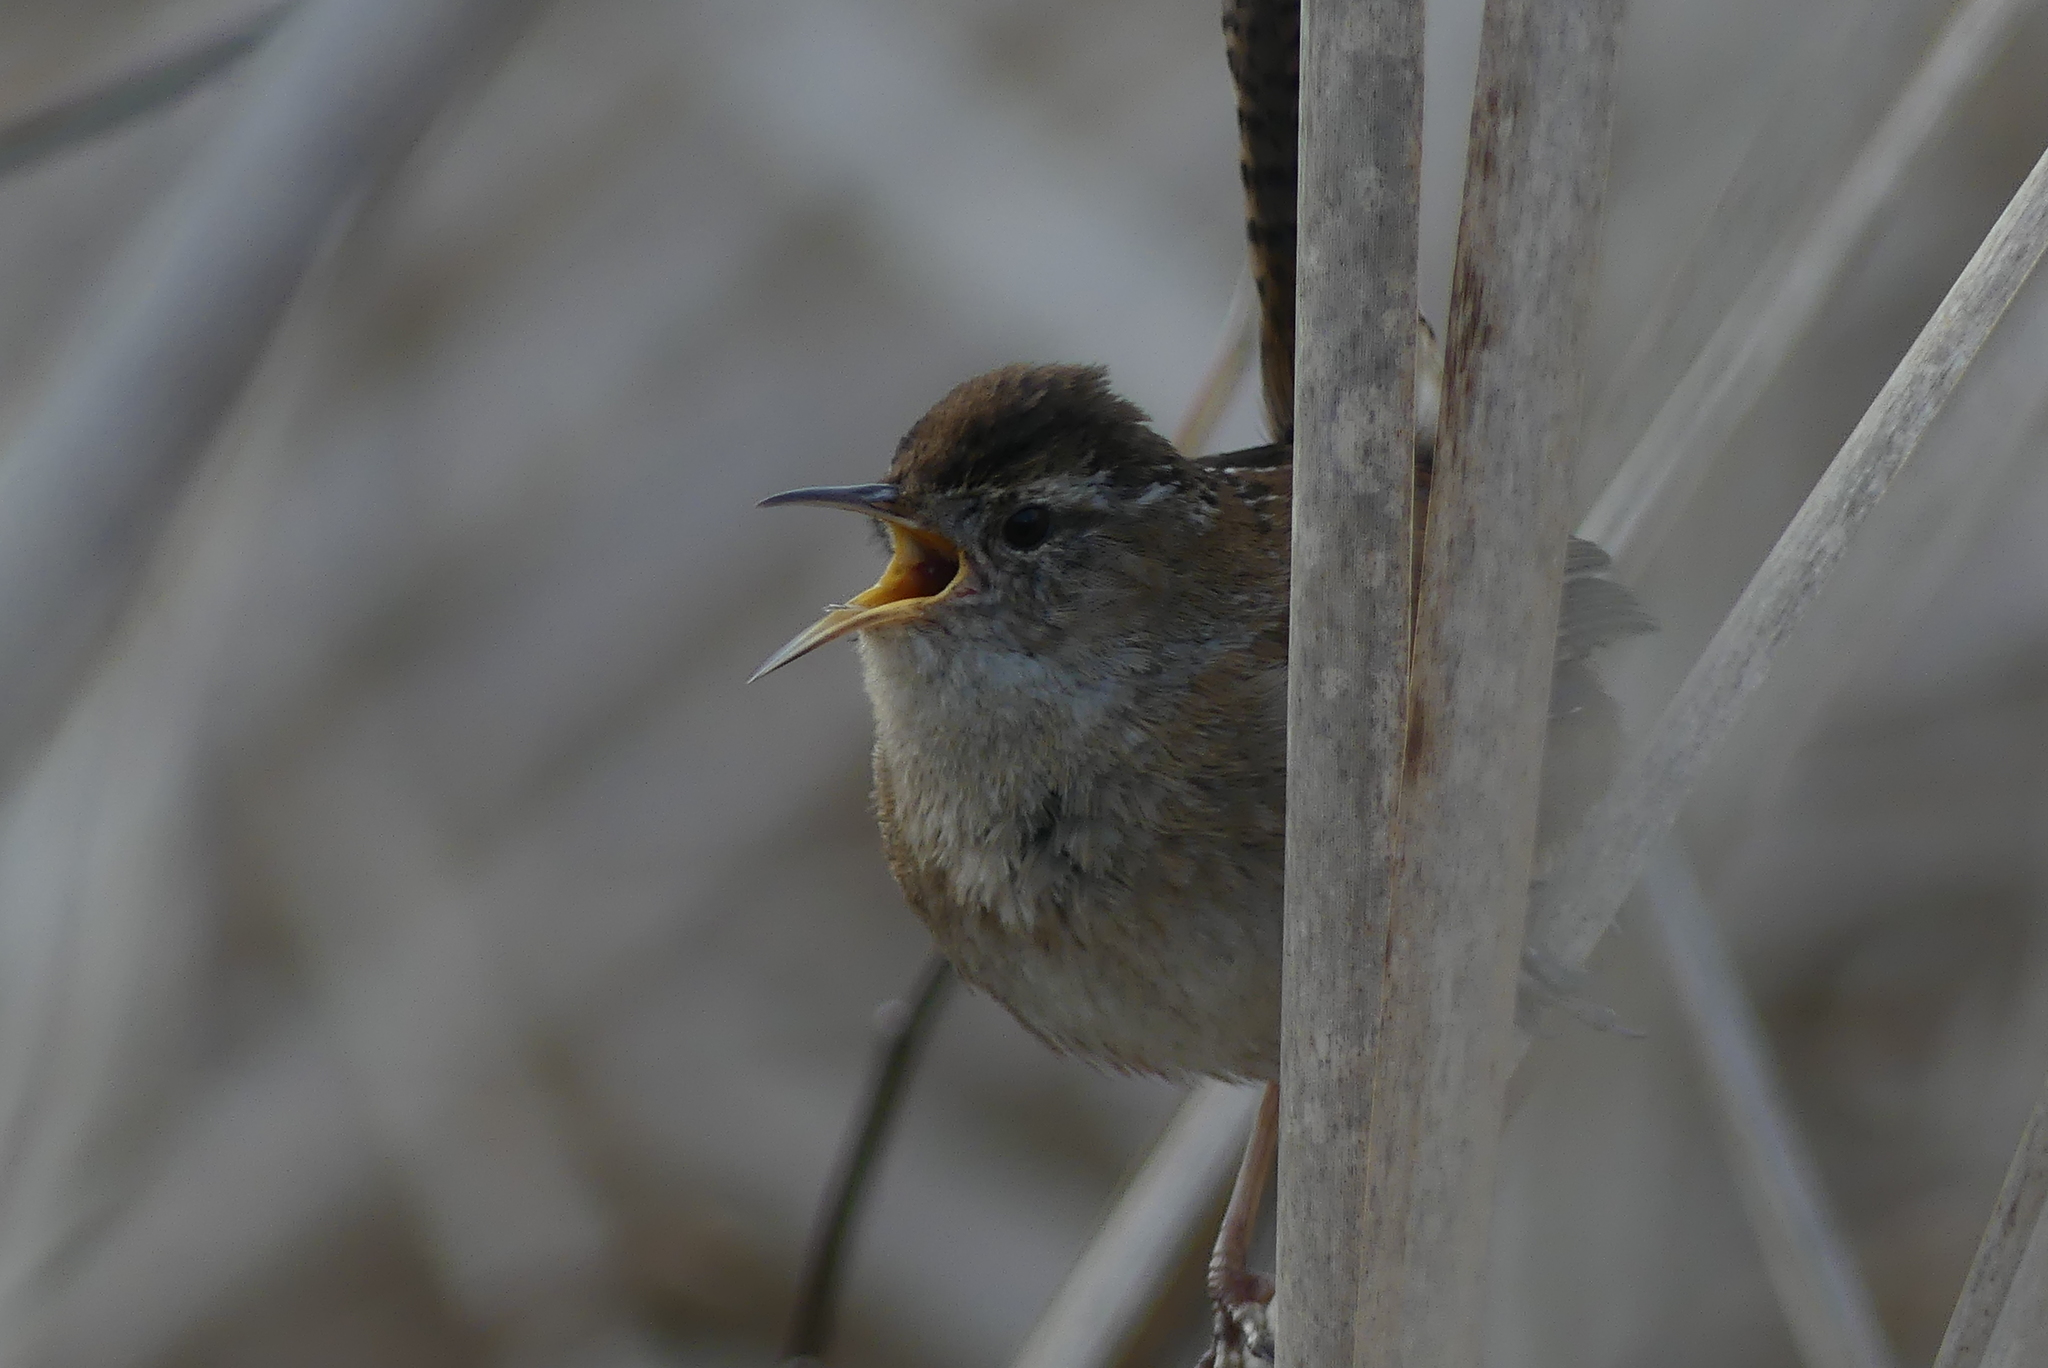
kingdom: Animalia
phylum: Chordata
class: Aves
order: Passeriformes
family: Troglodytidae
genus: Cistothorus
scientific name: Cistothorus palustris
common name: Marsh wren
